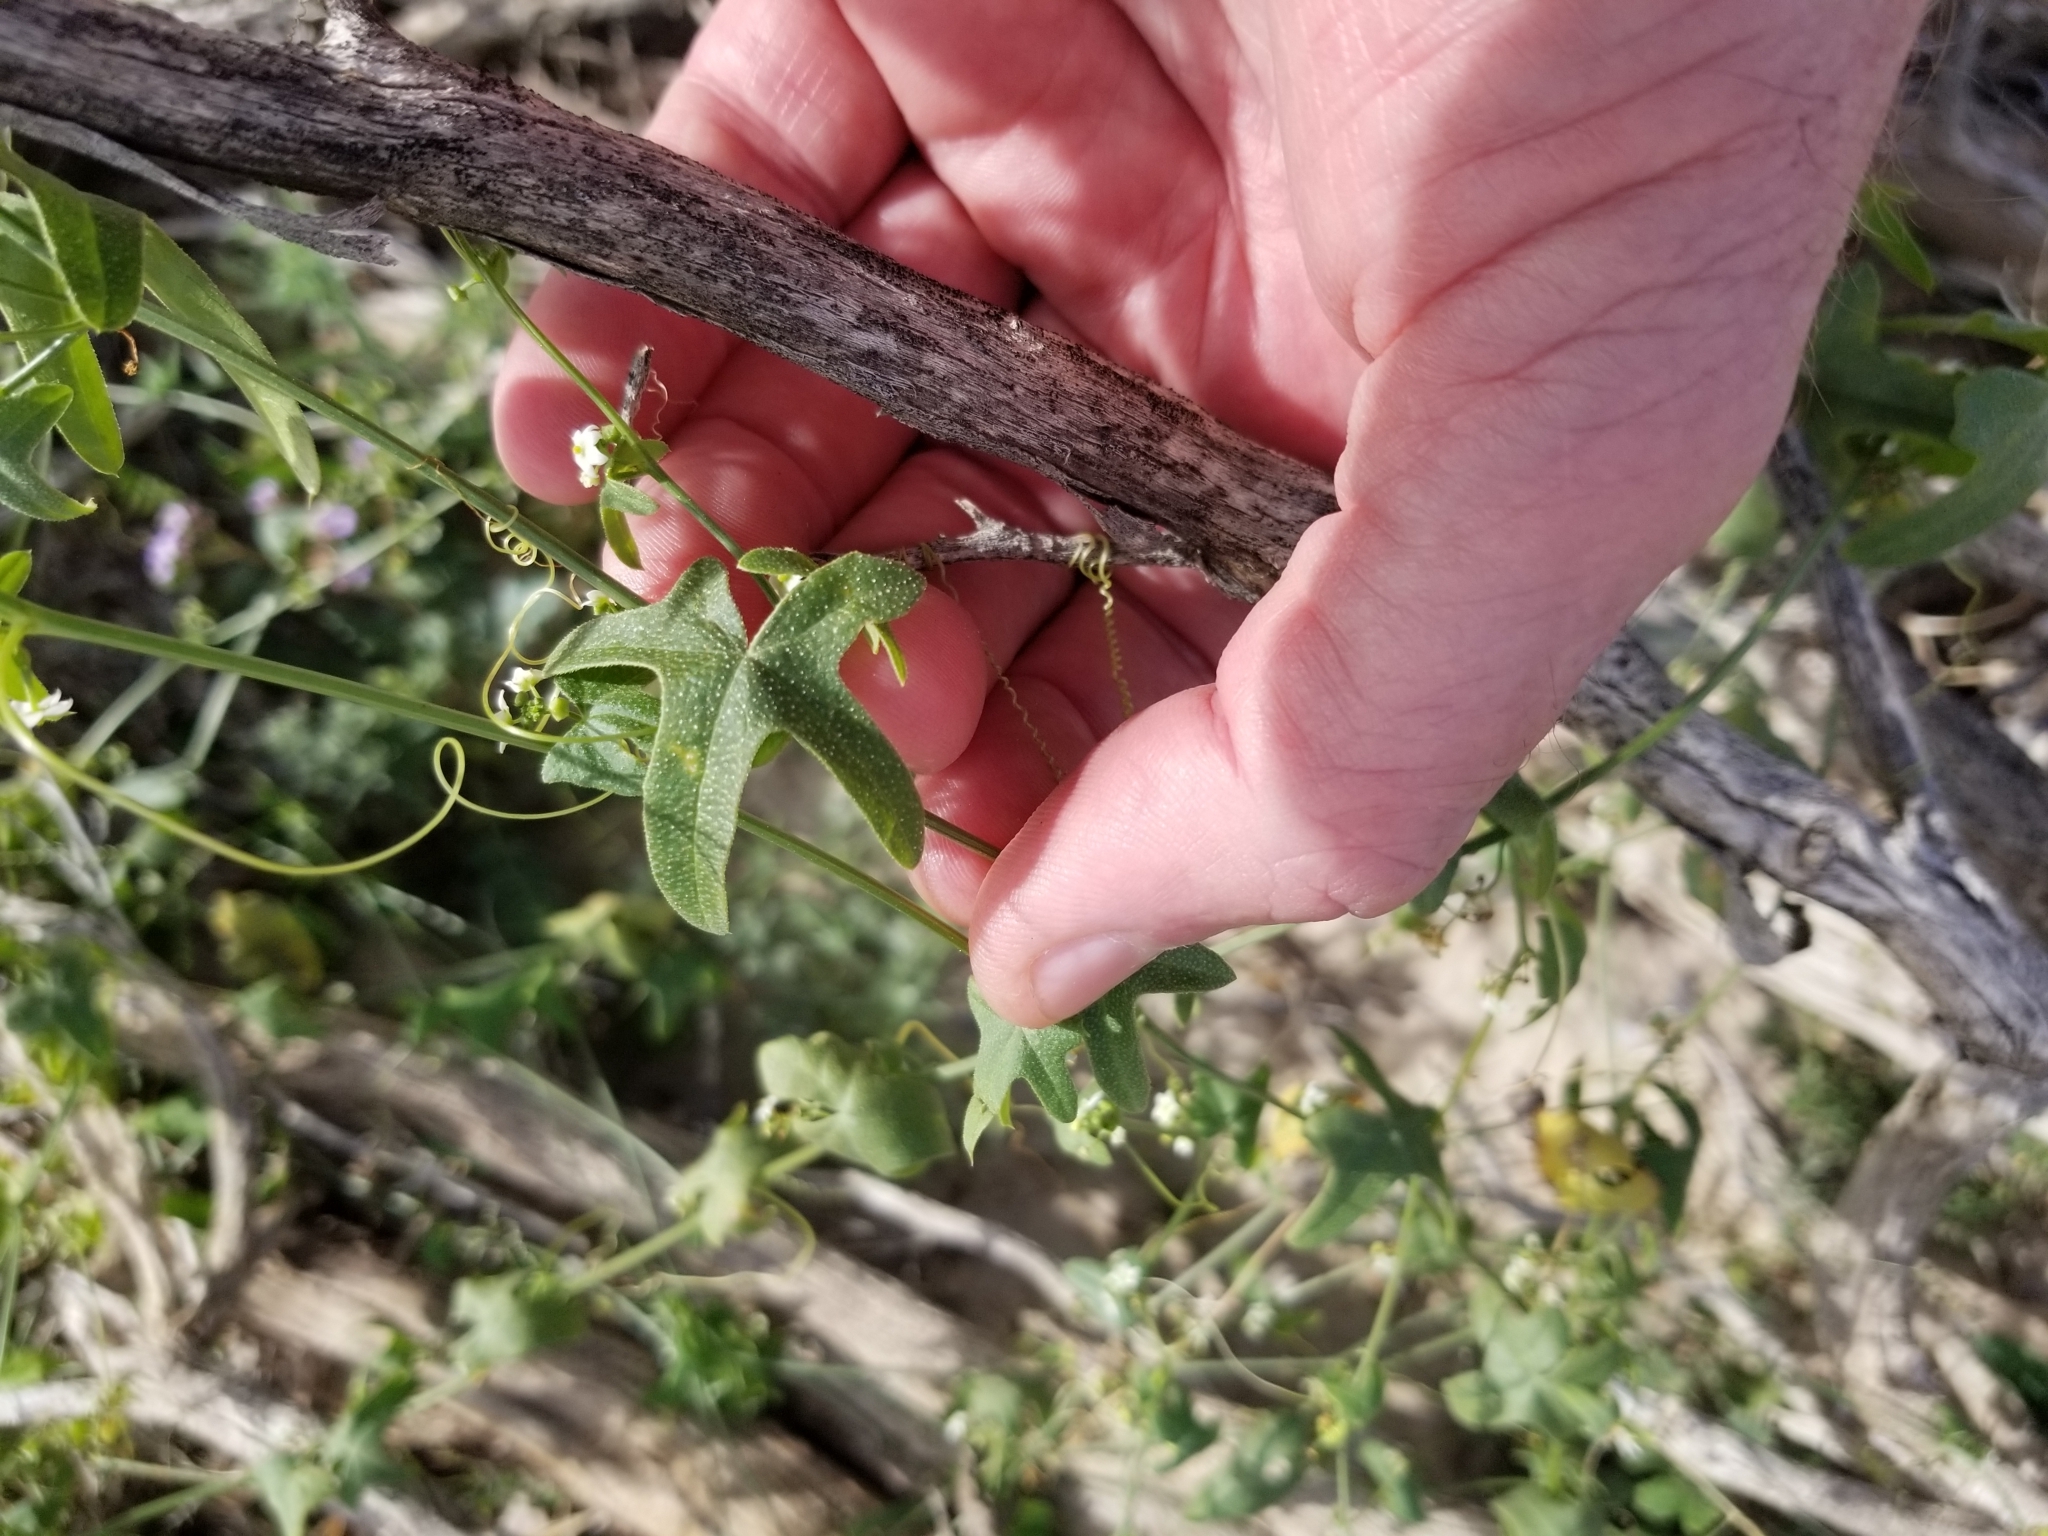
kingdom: Plantae
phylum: Tracheophyta
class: Magnoliopsida
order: Cucurbitales
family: Cucurbitaceae
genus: Echinopepon
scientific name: Echinopepon bigelovii
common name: Desert starvine
